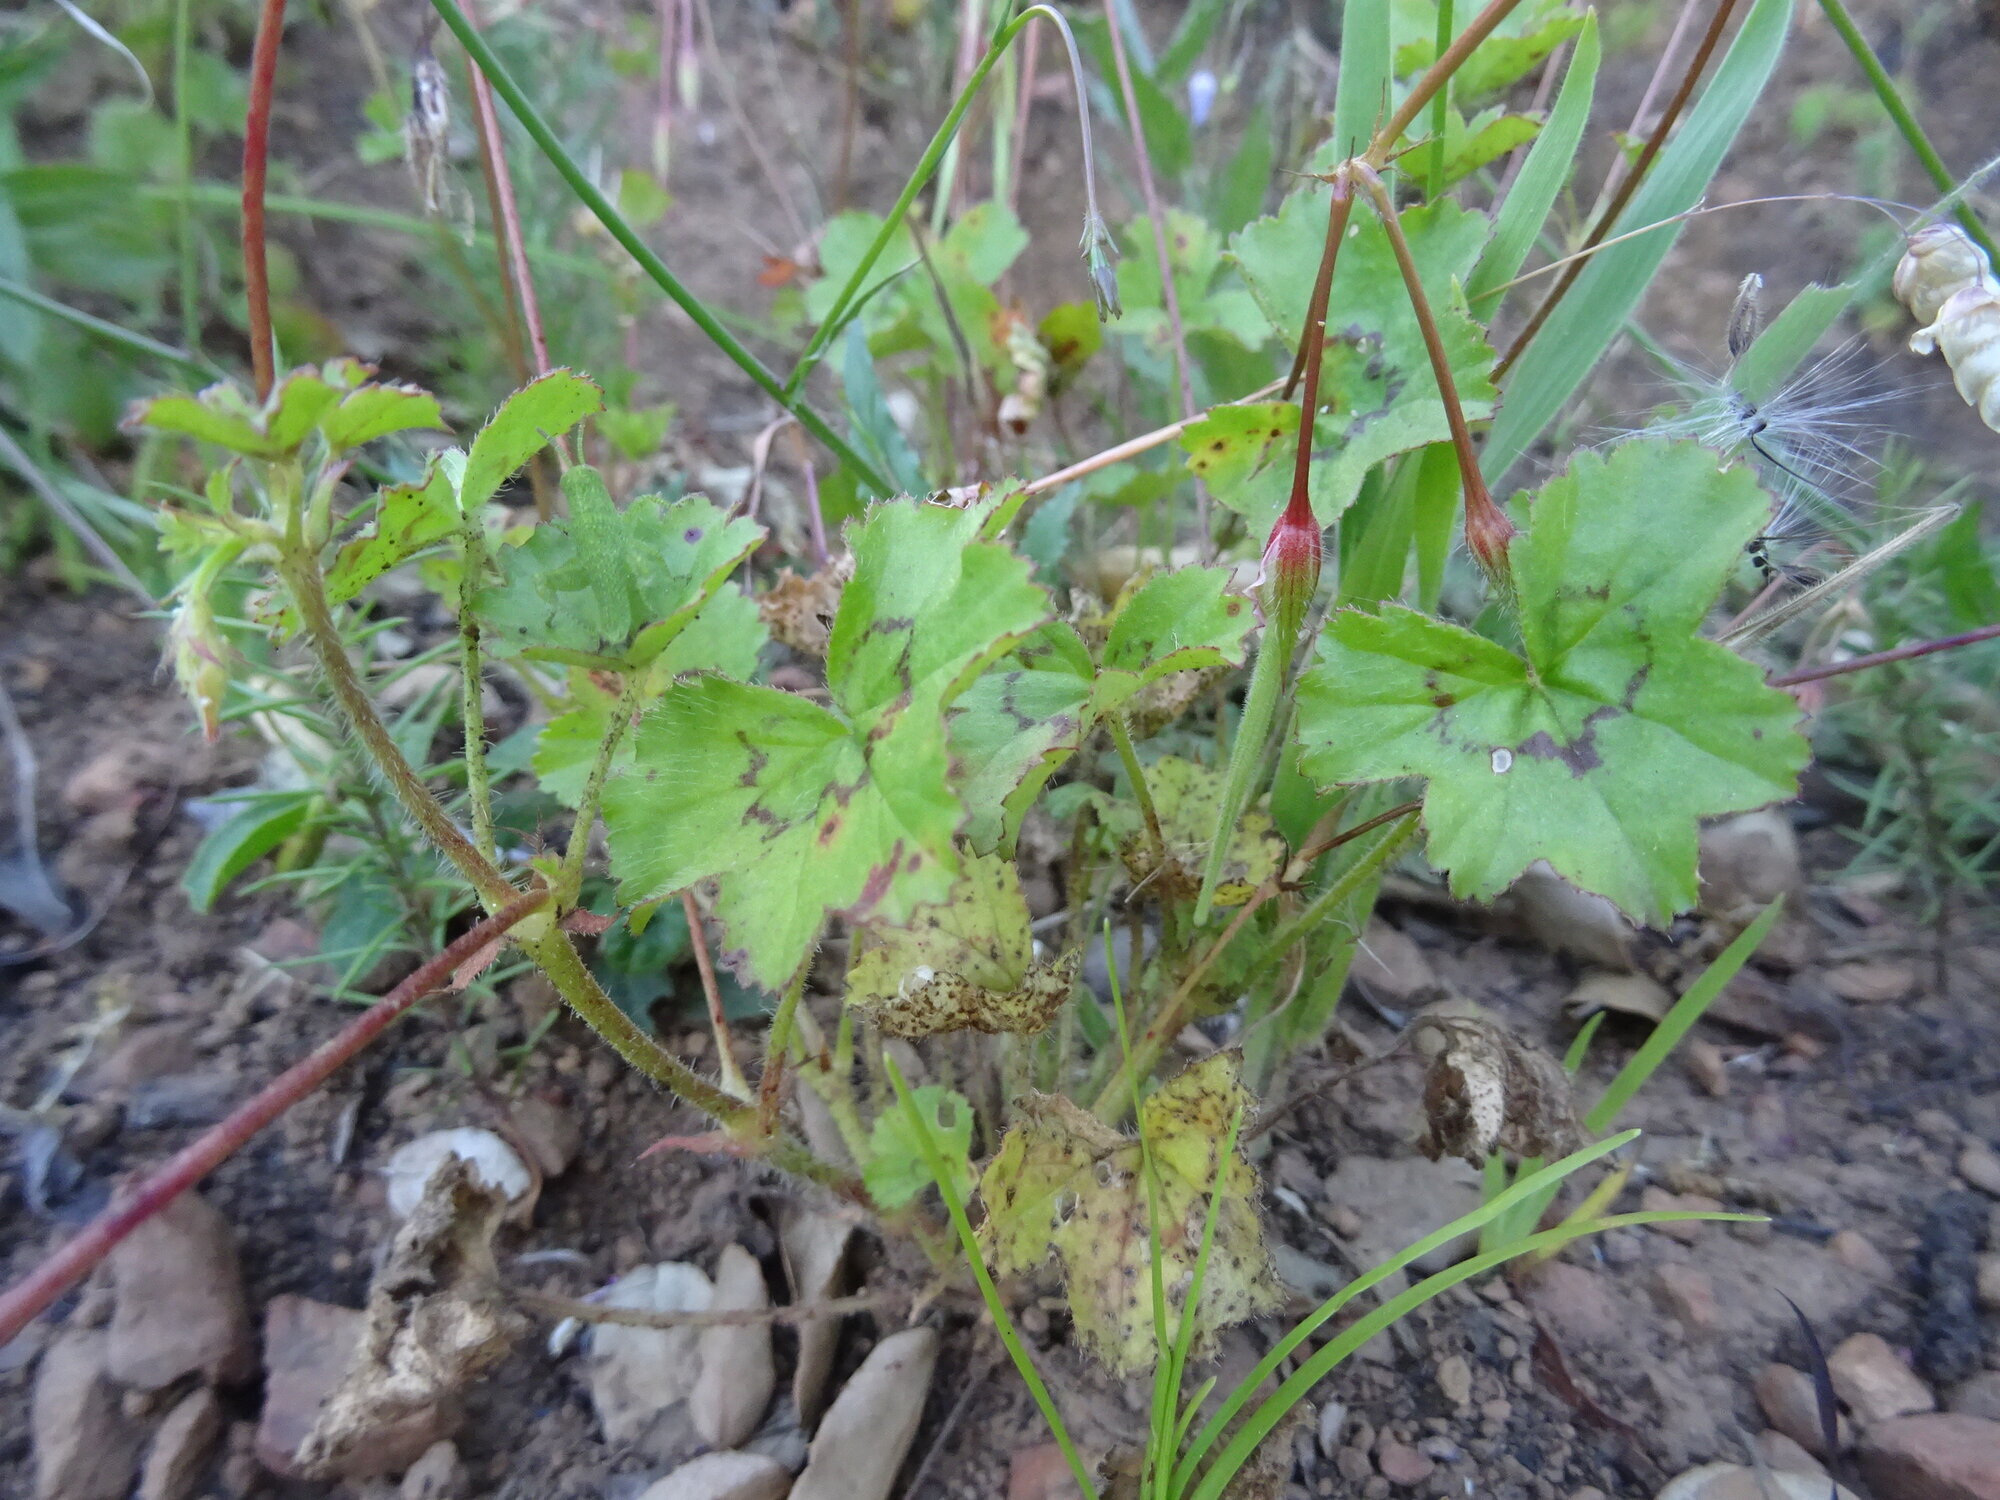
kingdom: Plantae
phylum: Tracheophyta
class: Magnoliopsida
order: Geraniales
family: Geraniaceae
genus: Pelargonium
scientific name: Pelargonium alchemilloides
